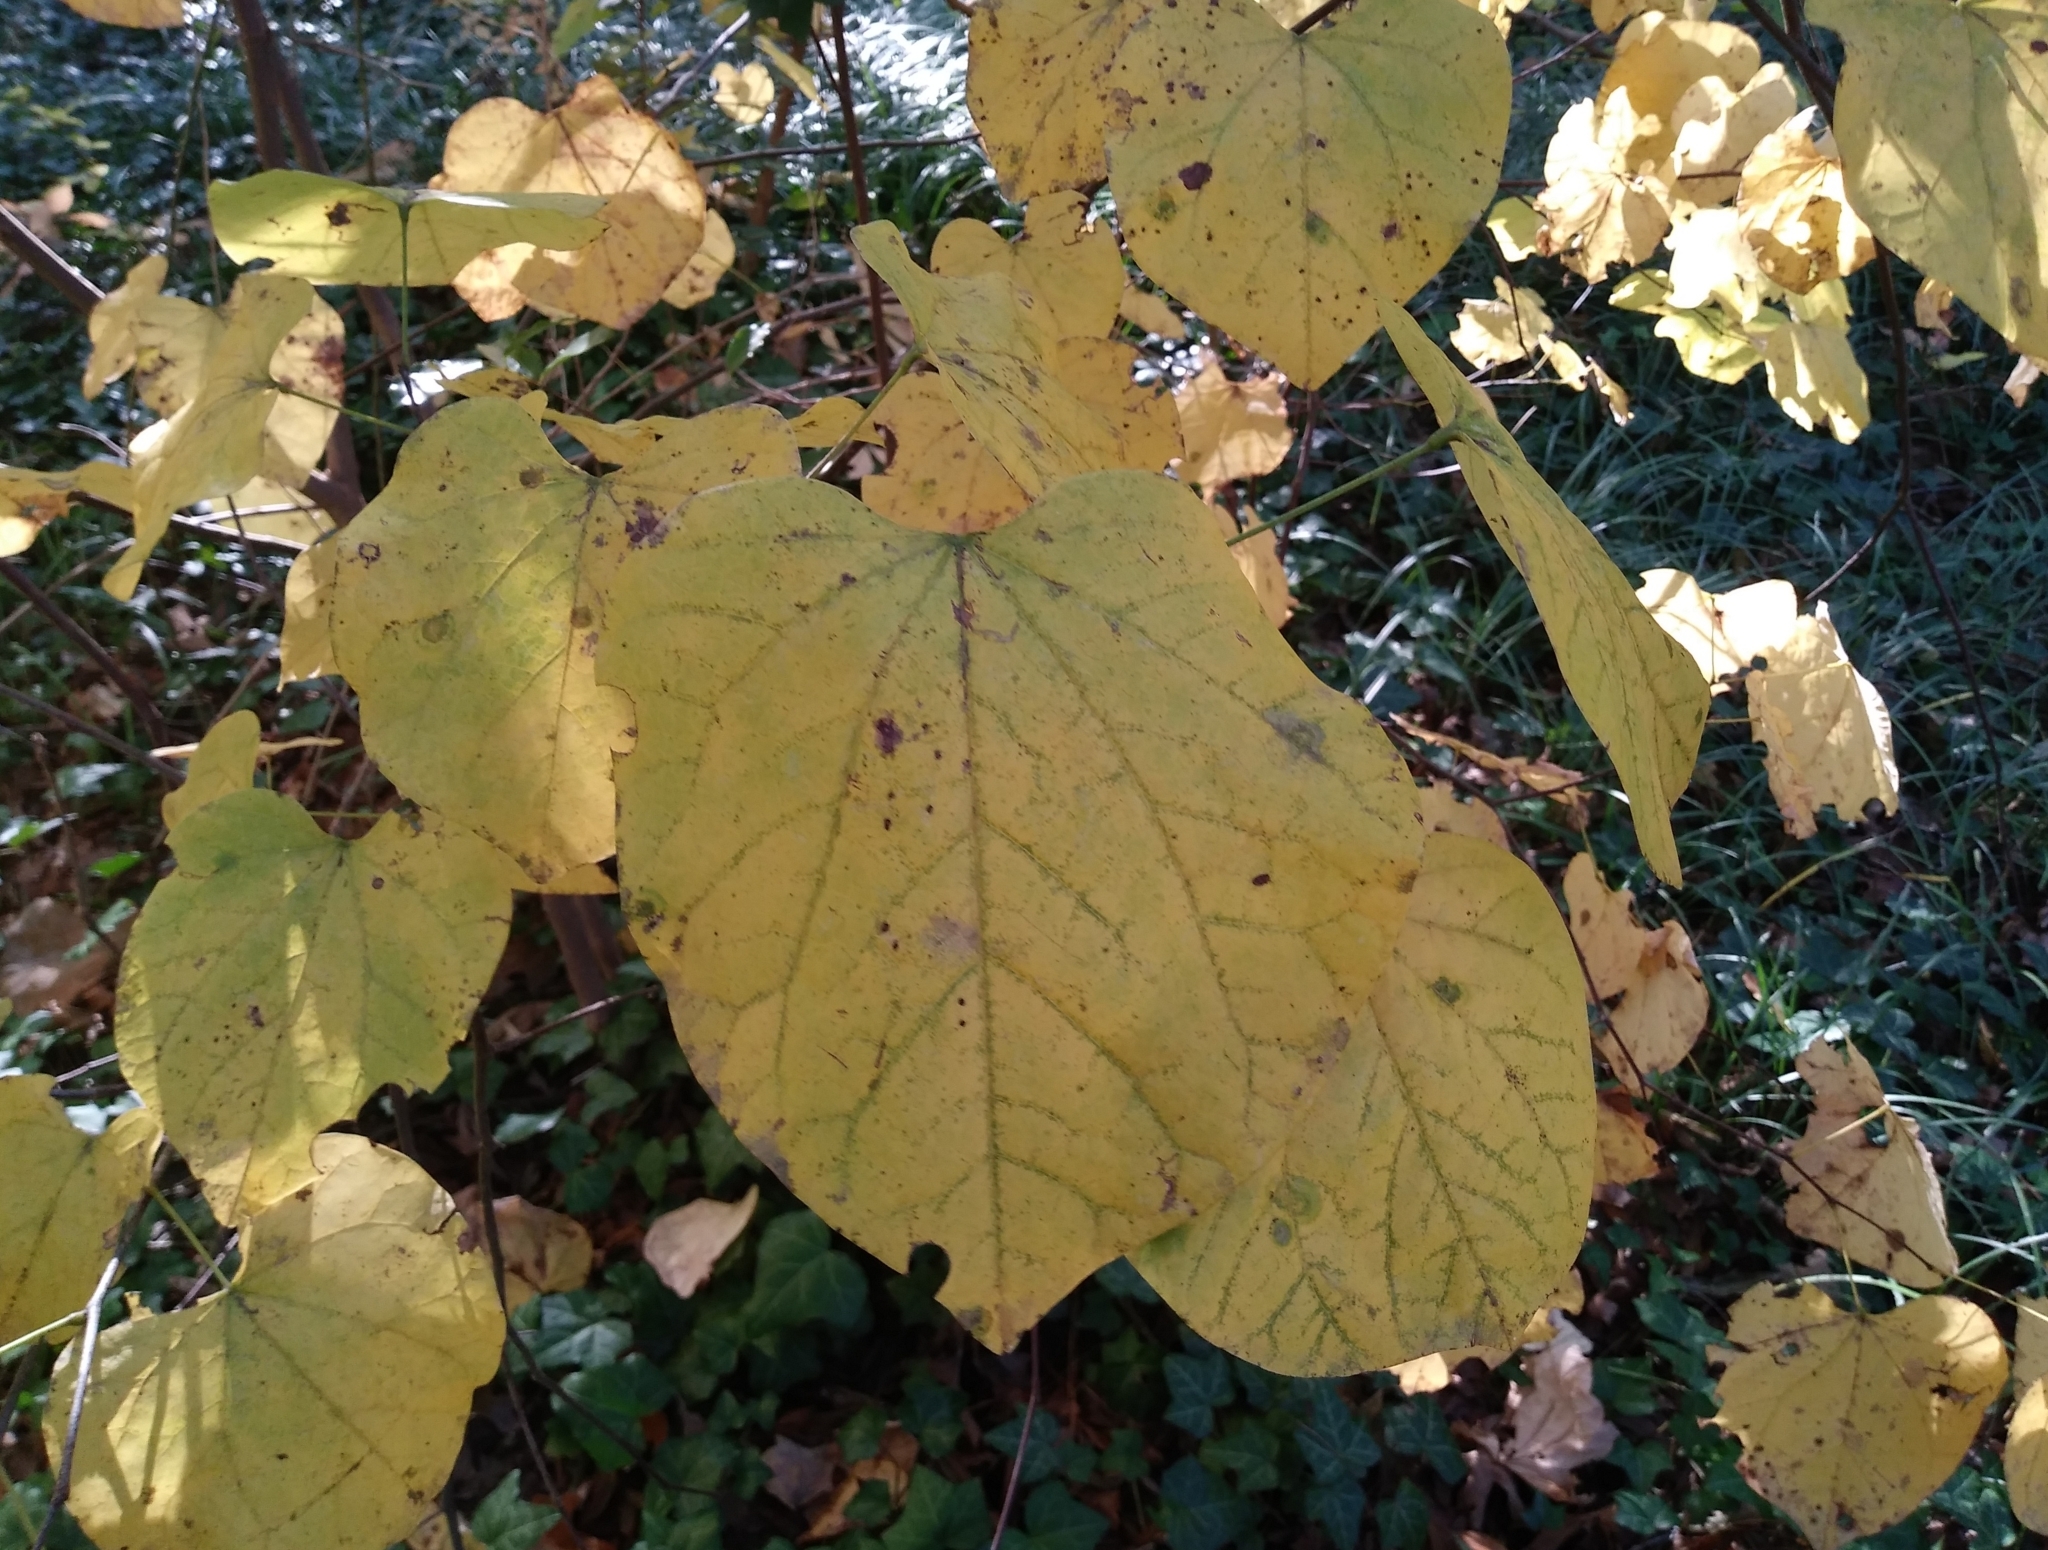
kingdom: Plantae
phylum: Tracheophyta
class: Magnoliopsida
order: Fabales
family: Fabaceae
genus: Cercis
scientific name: Cercis canadensis
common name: Eastern redbud
